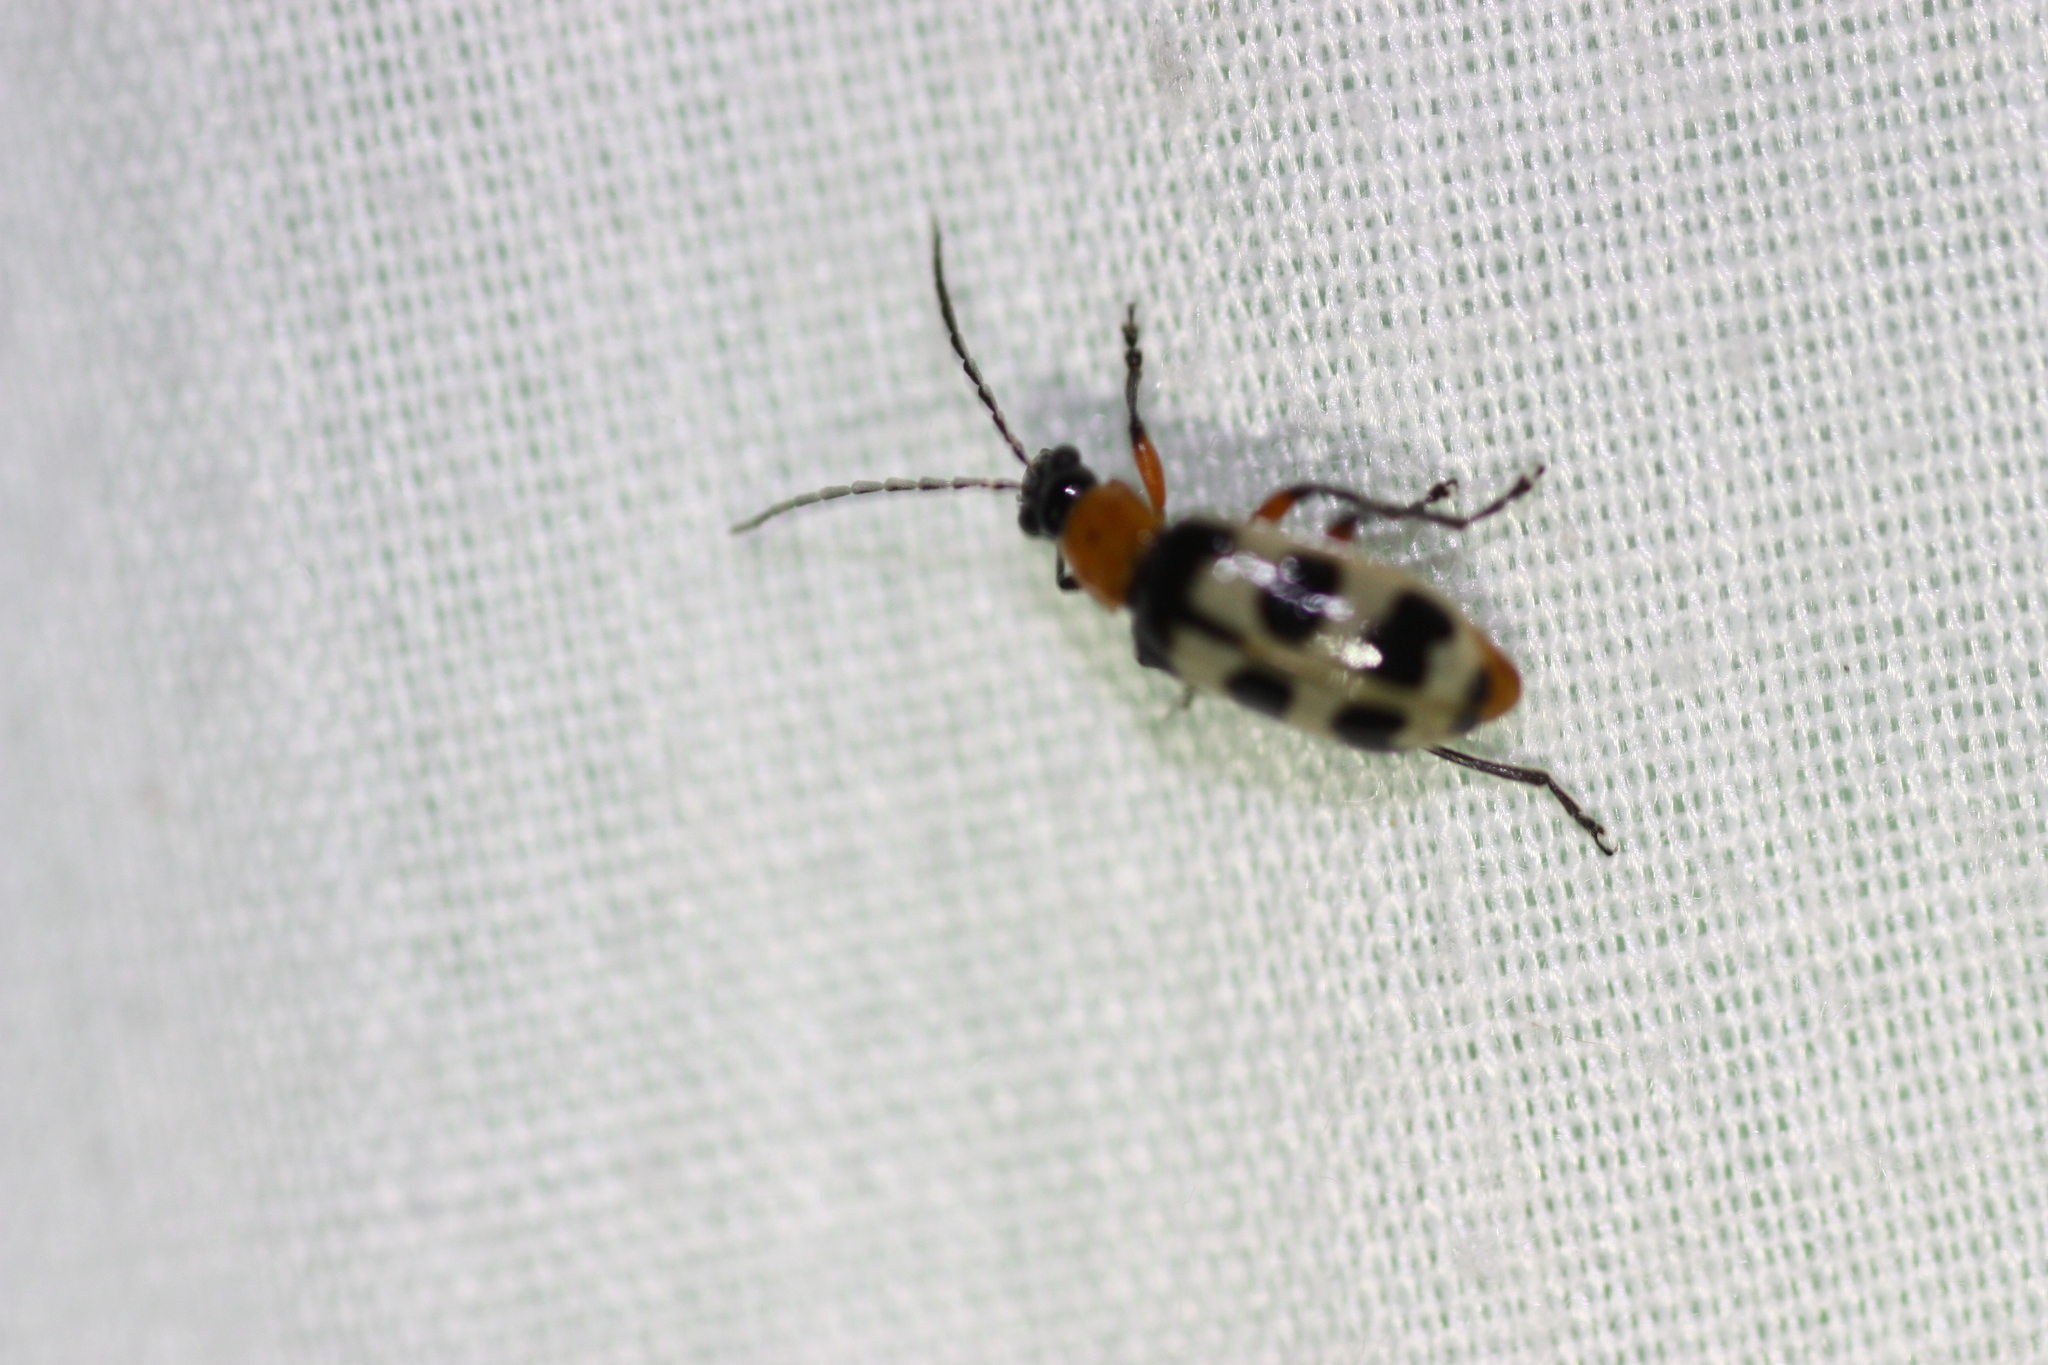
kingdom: Animalia
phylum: Arthropoda
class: Insecta
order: Coleoptera
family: Chrysomelidae
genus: Paranapiacaba
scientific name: Paranapiacaba tricincta
